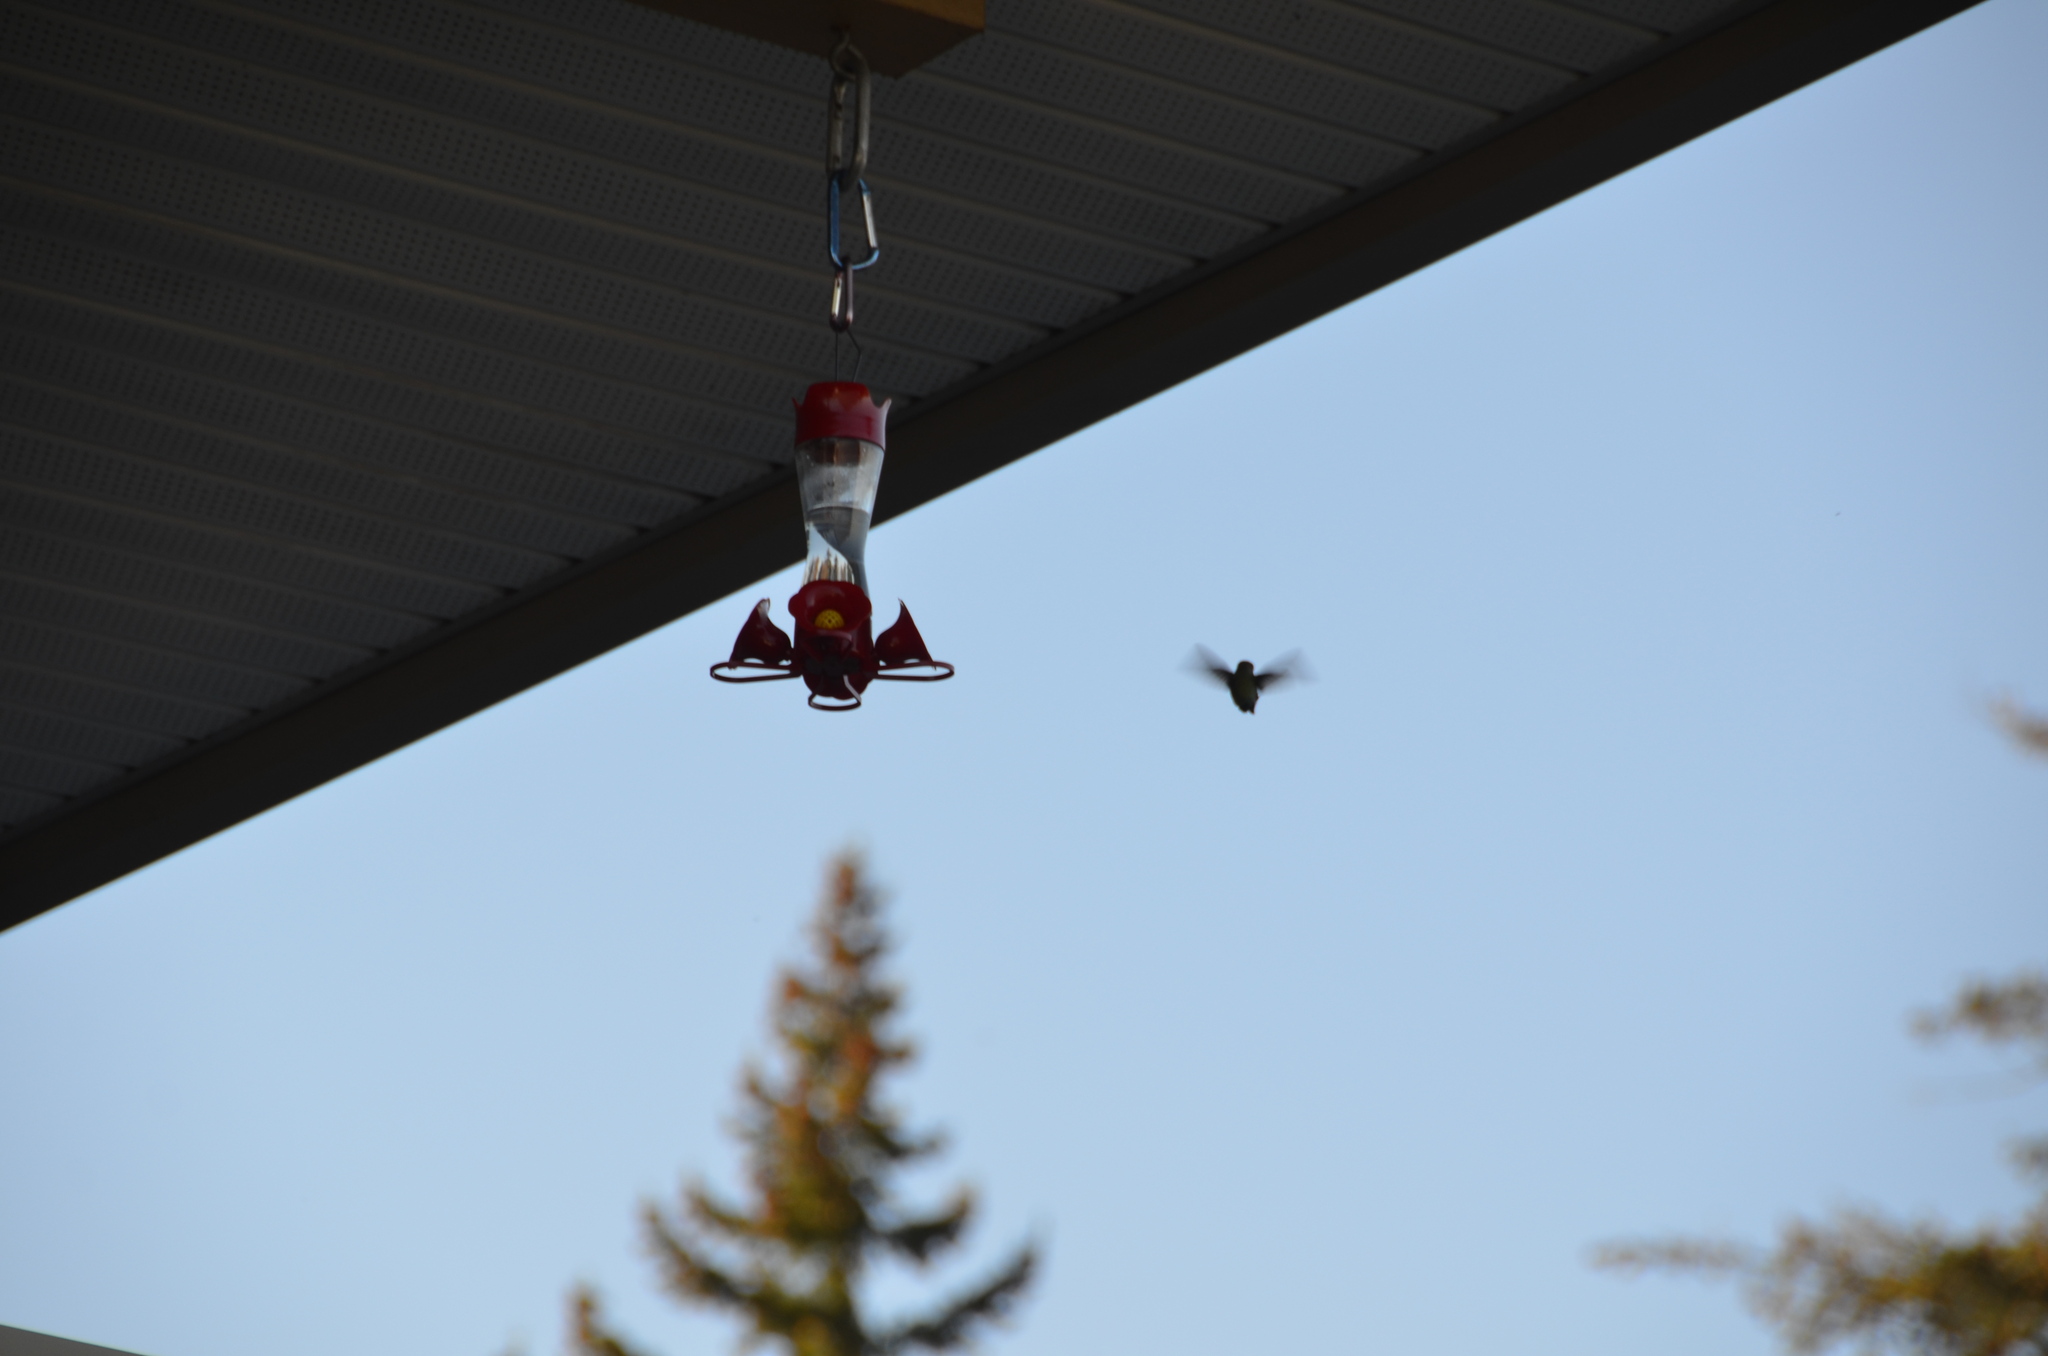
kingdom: Animalia
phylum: Chordata
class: Aves
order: Apodiformes
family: Trochilidae
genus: Calypte
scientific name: Calypte anna
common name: Anna's hummingbird
